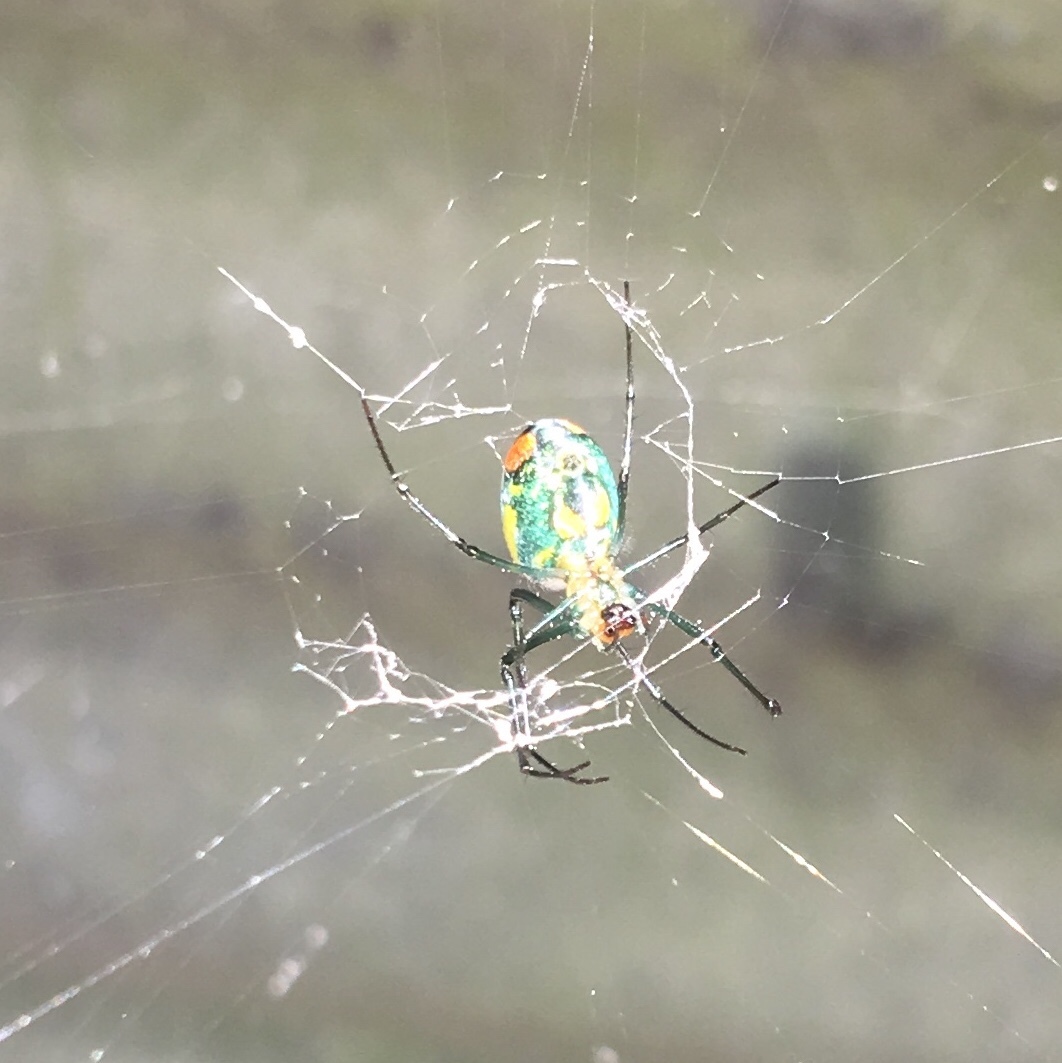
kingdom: Animalia
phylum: Arthropoda
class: Arachnida
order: Araneae
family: Tetragnathidae
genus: Leucauge
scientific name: Leucauge argyrobapta
